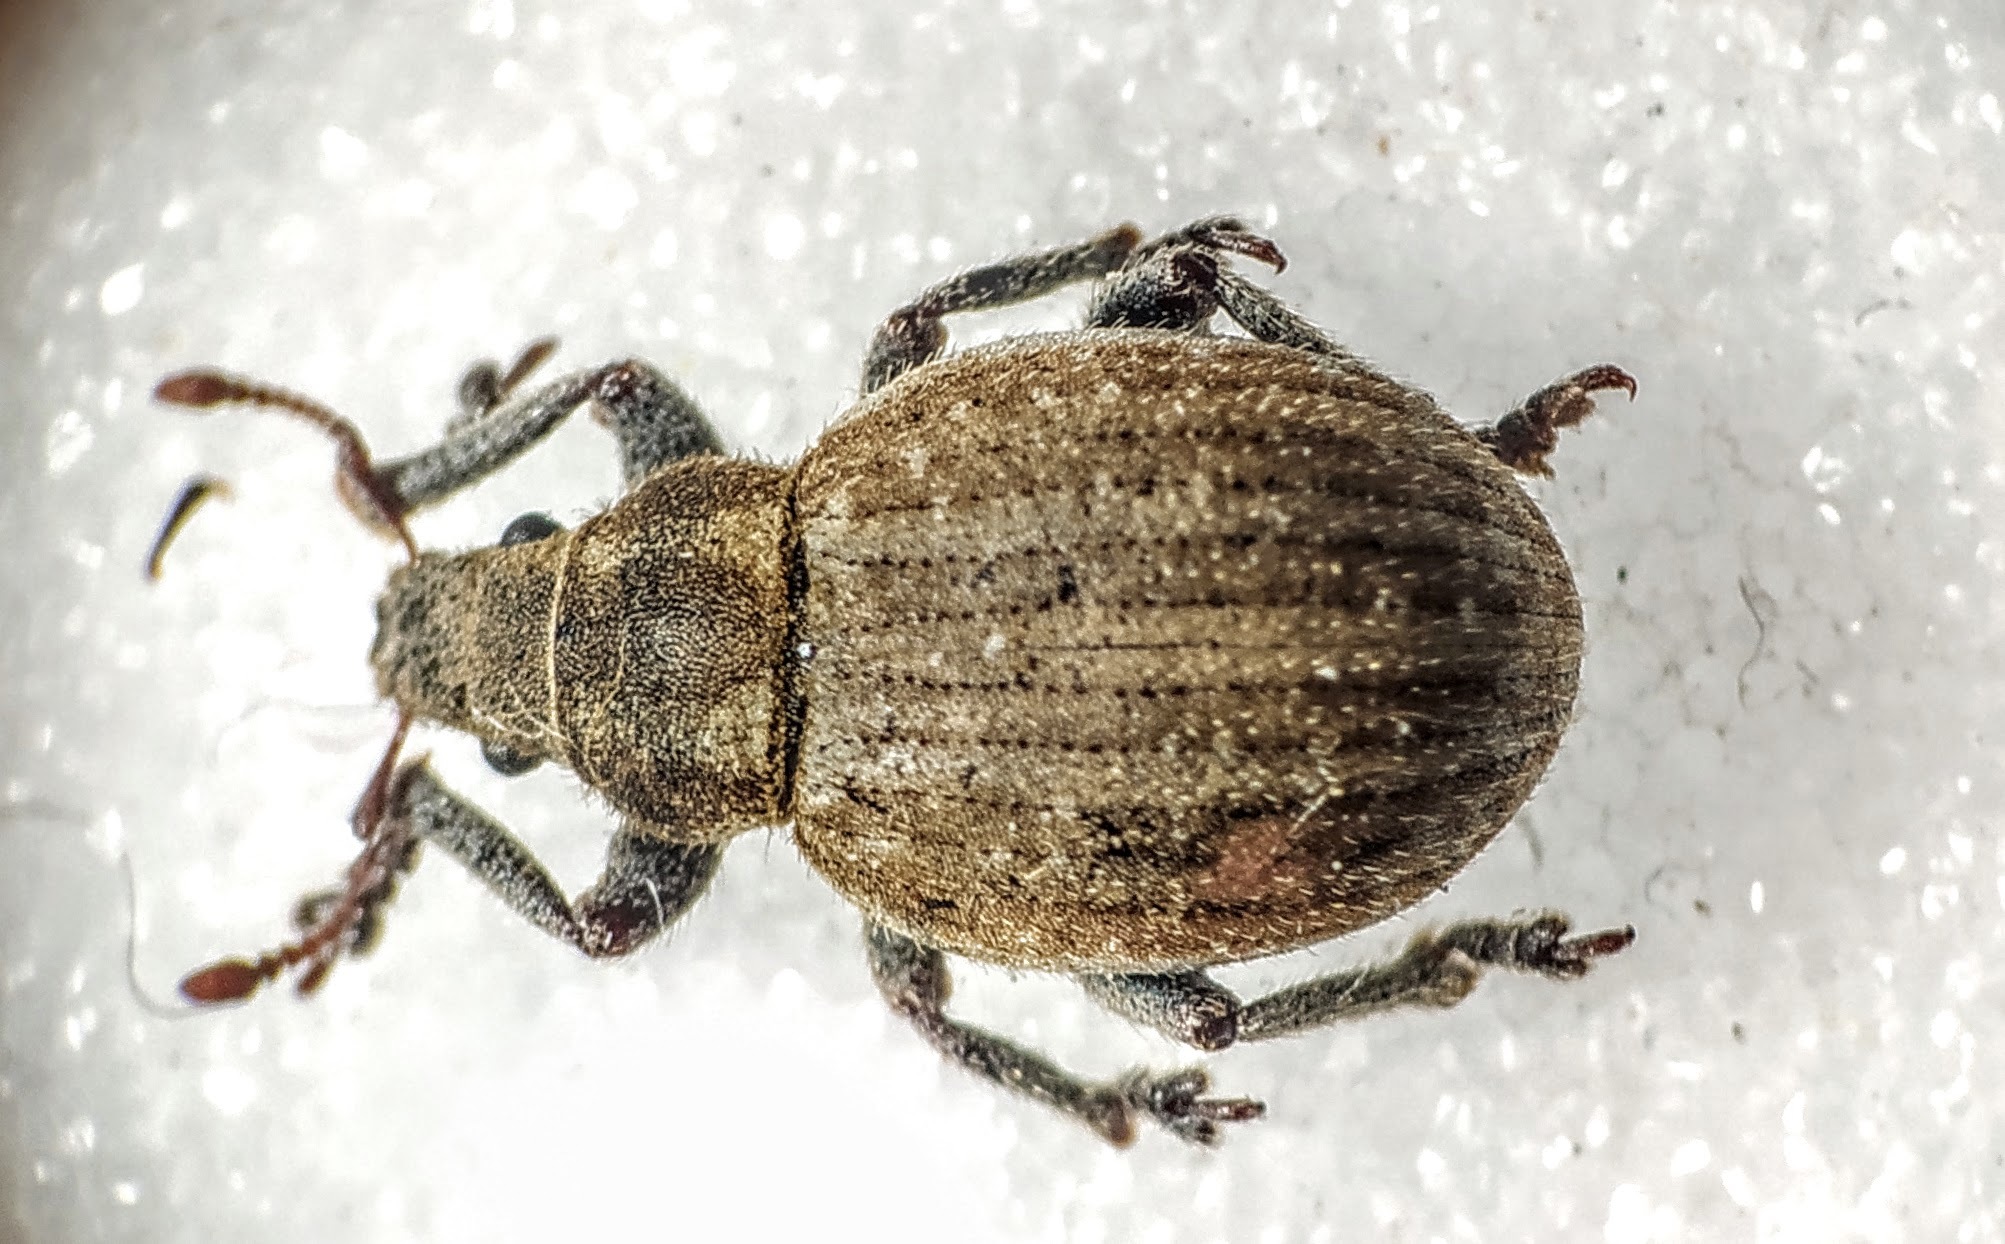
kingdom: Animalia
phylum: Arthropoda
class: Insecta
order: Coleoptera
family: Curculionidae
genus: Philopedon
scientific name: Philopedon plagiatum
